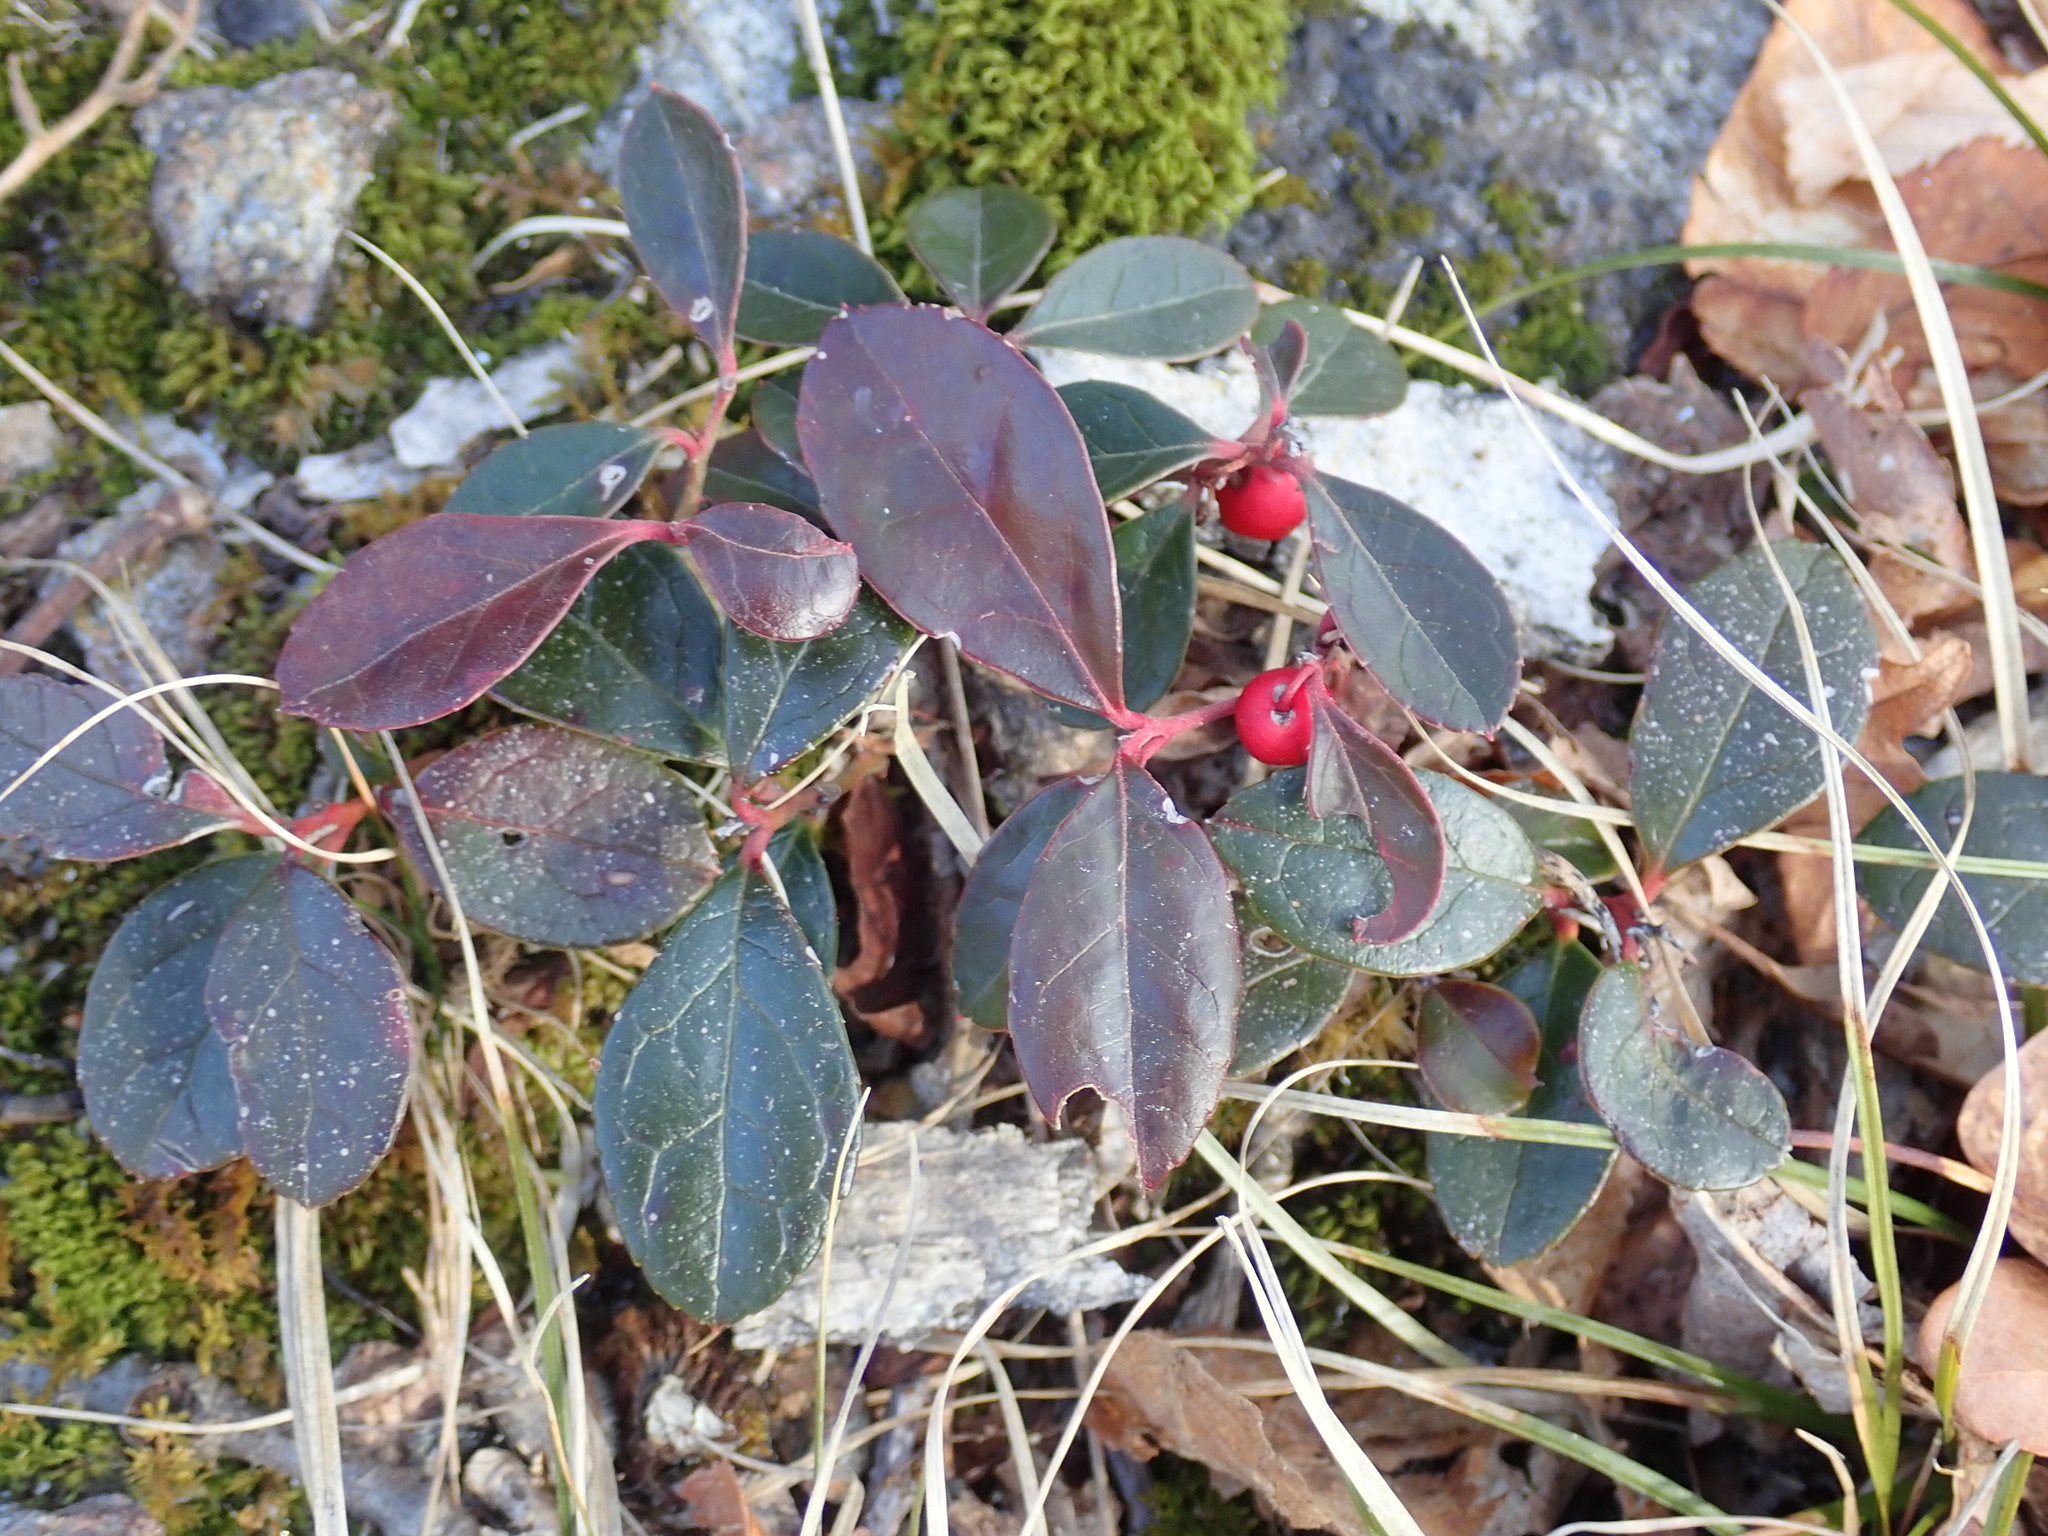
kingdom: Plantae
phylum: Tracheophyta
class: Magnoliopsida
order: Ericales
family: Ericaceae
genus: Gaultheria
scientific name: Gaultheria procumbens
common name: Checkerberry
